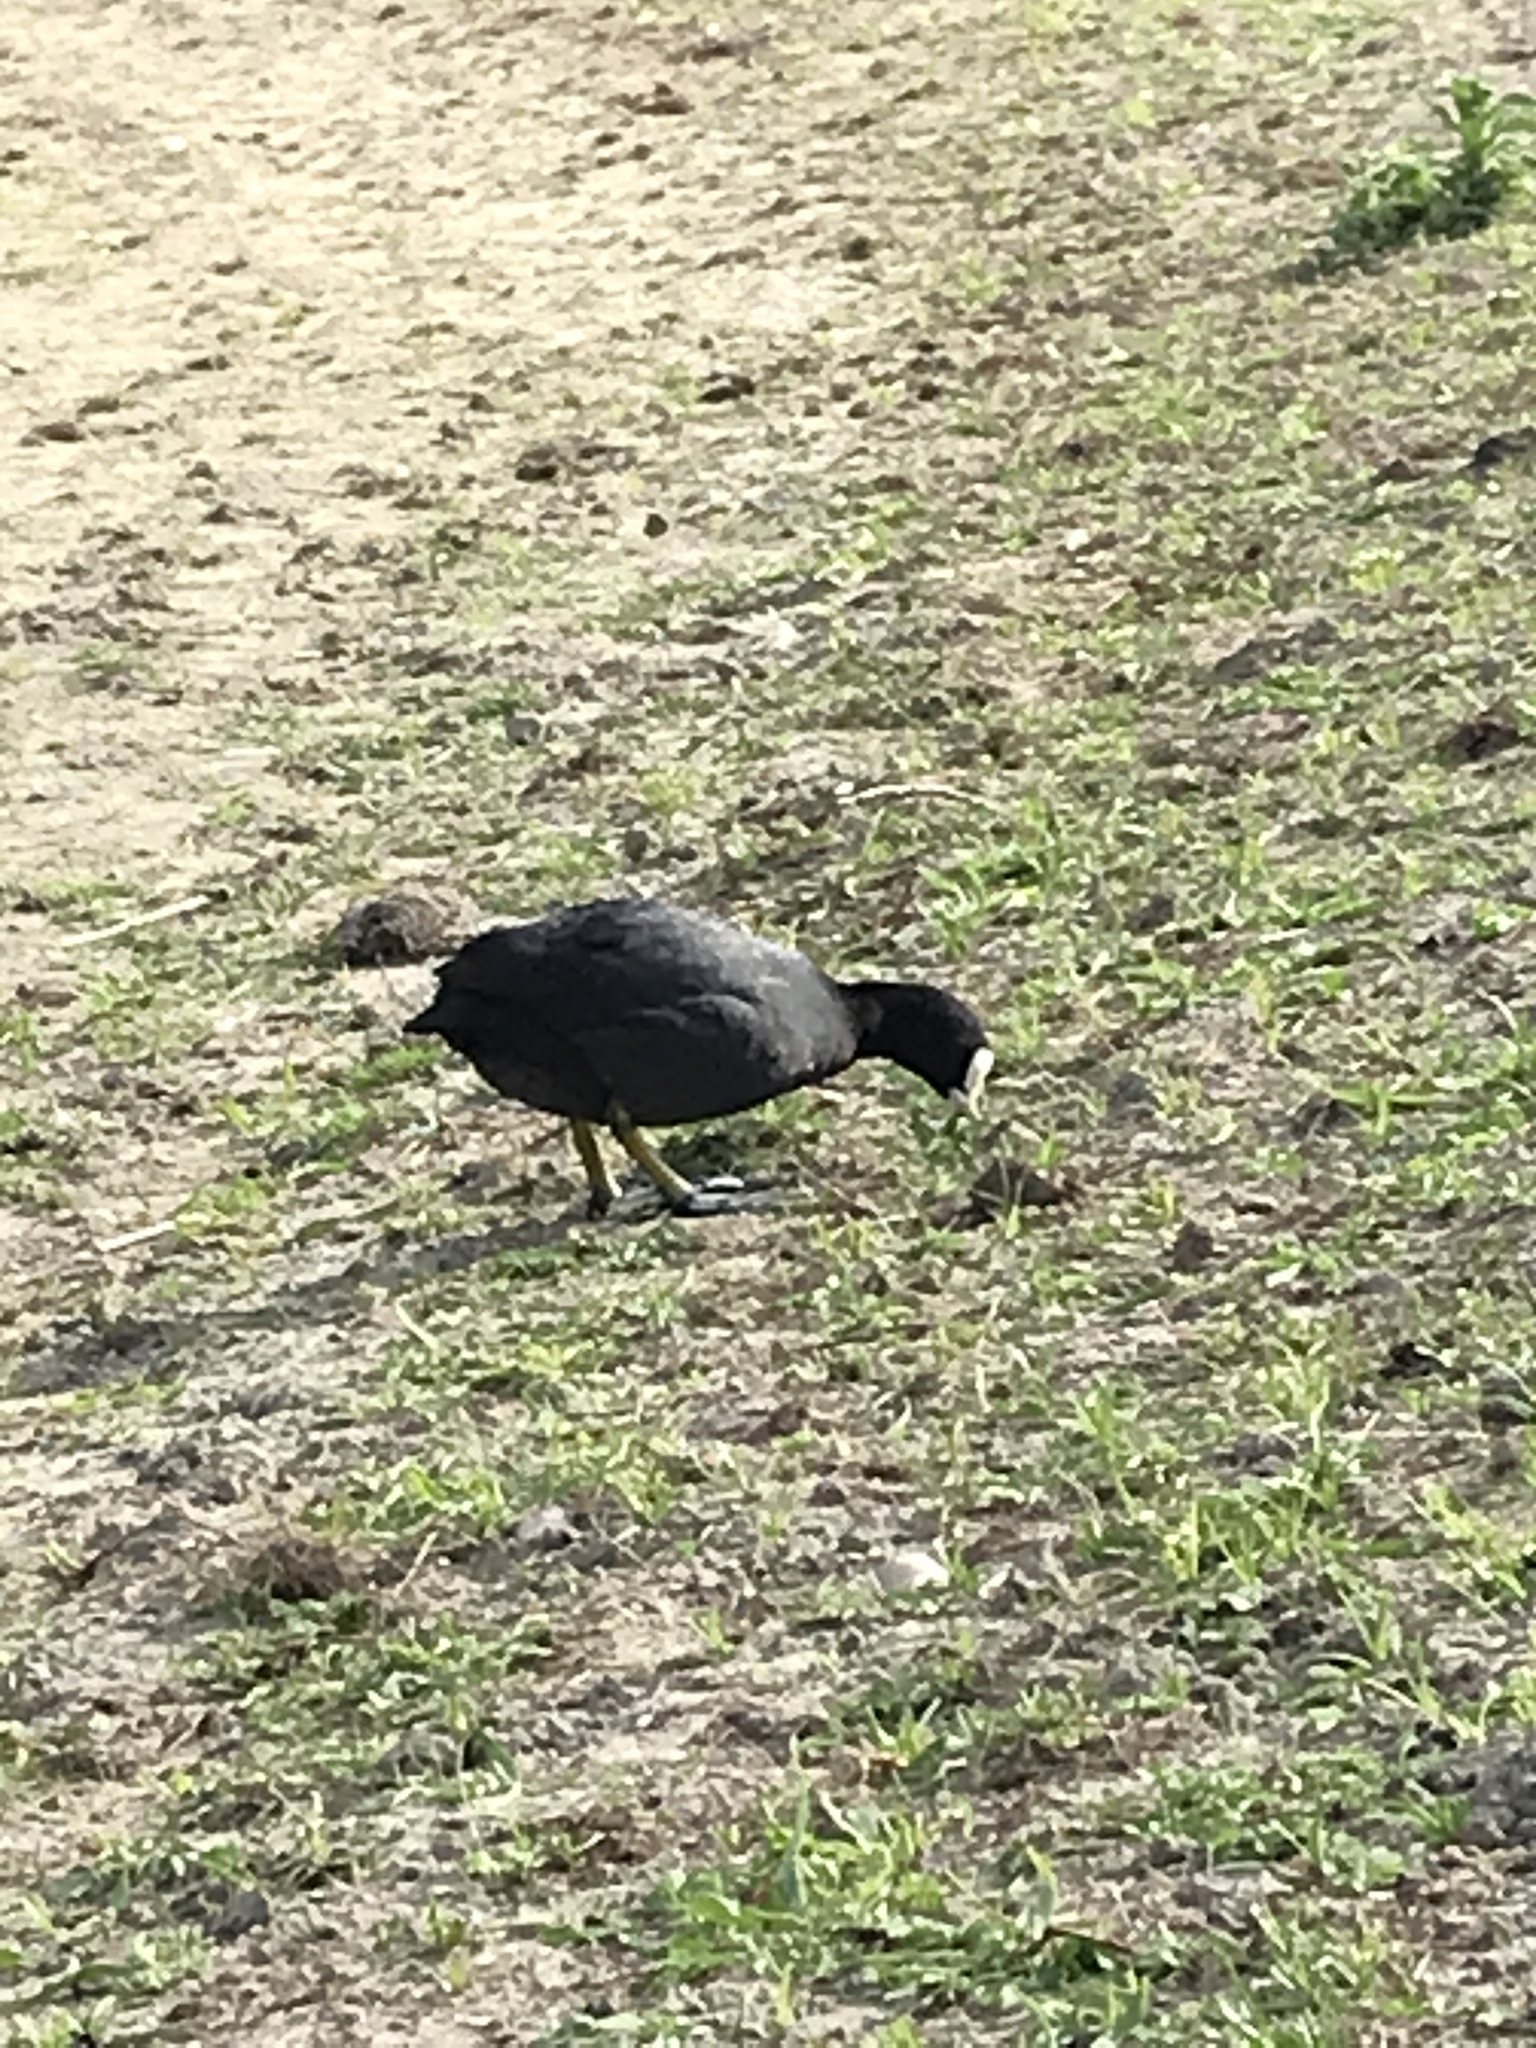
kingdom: Animalia
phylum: Chordata
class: Aves
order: Gruiformes
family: Rallidae
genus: Fulica
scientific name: Fulica atra
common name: Eurasian coot
